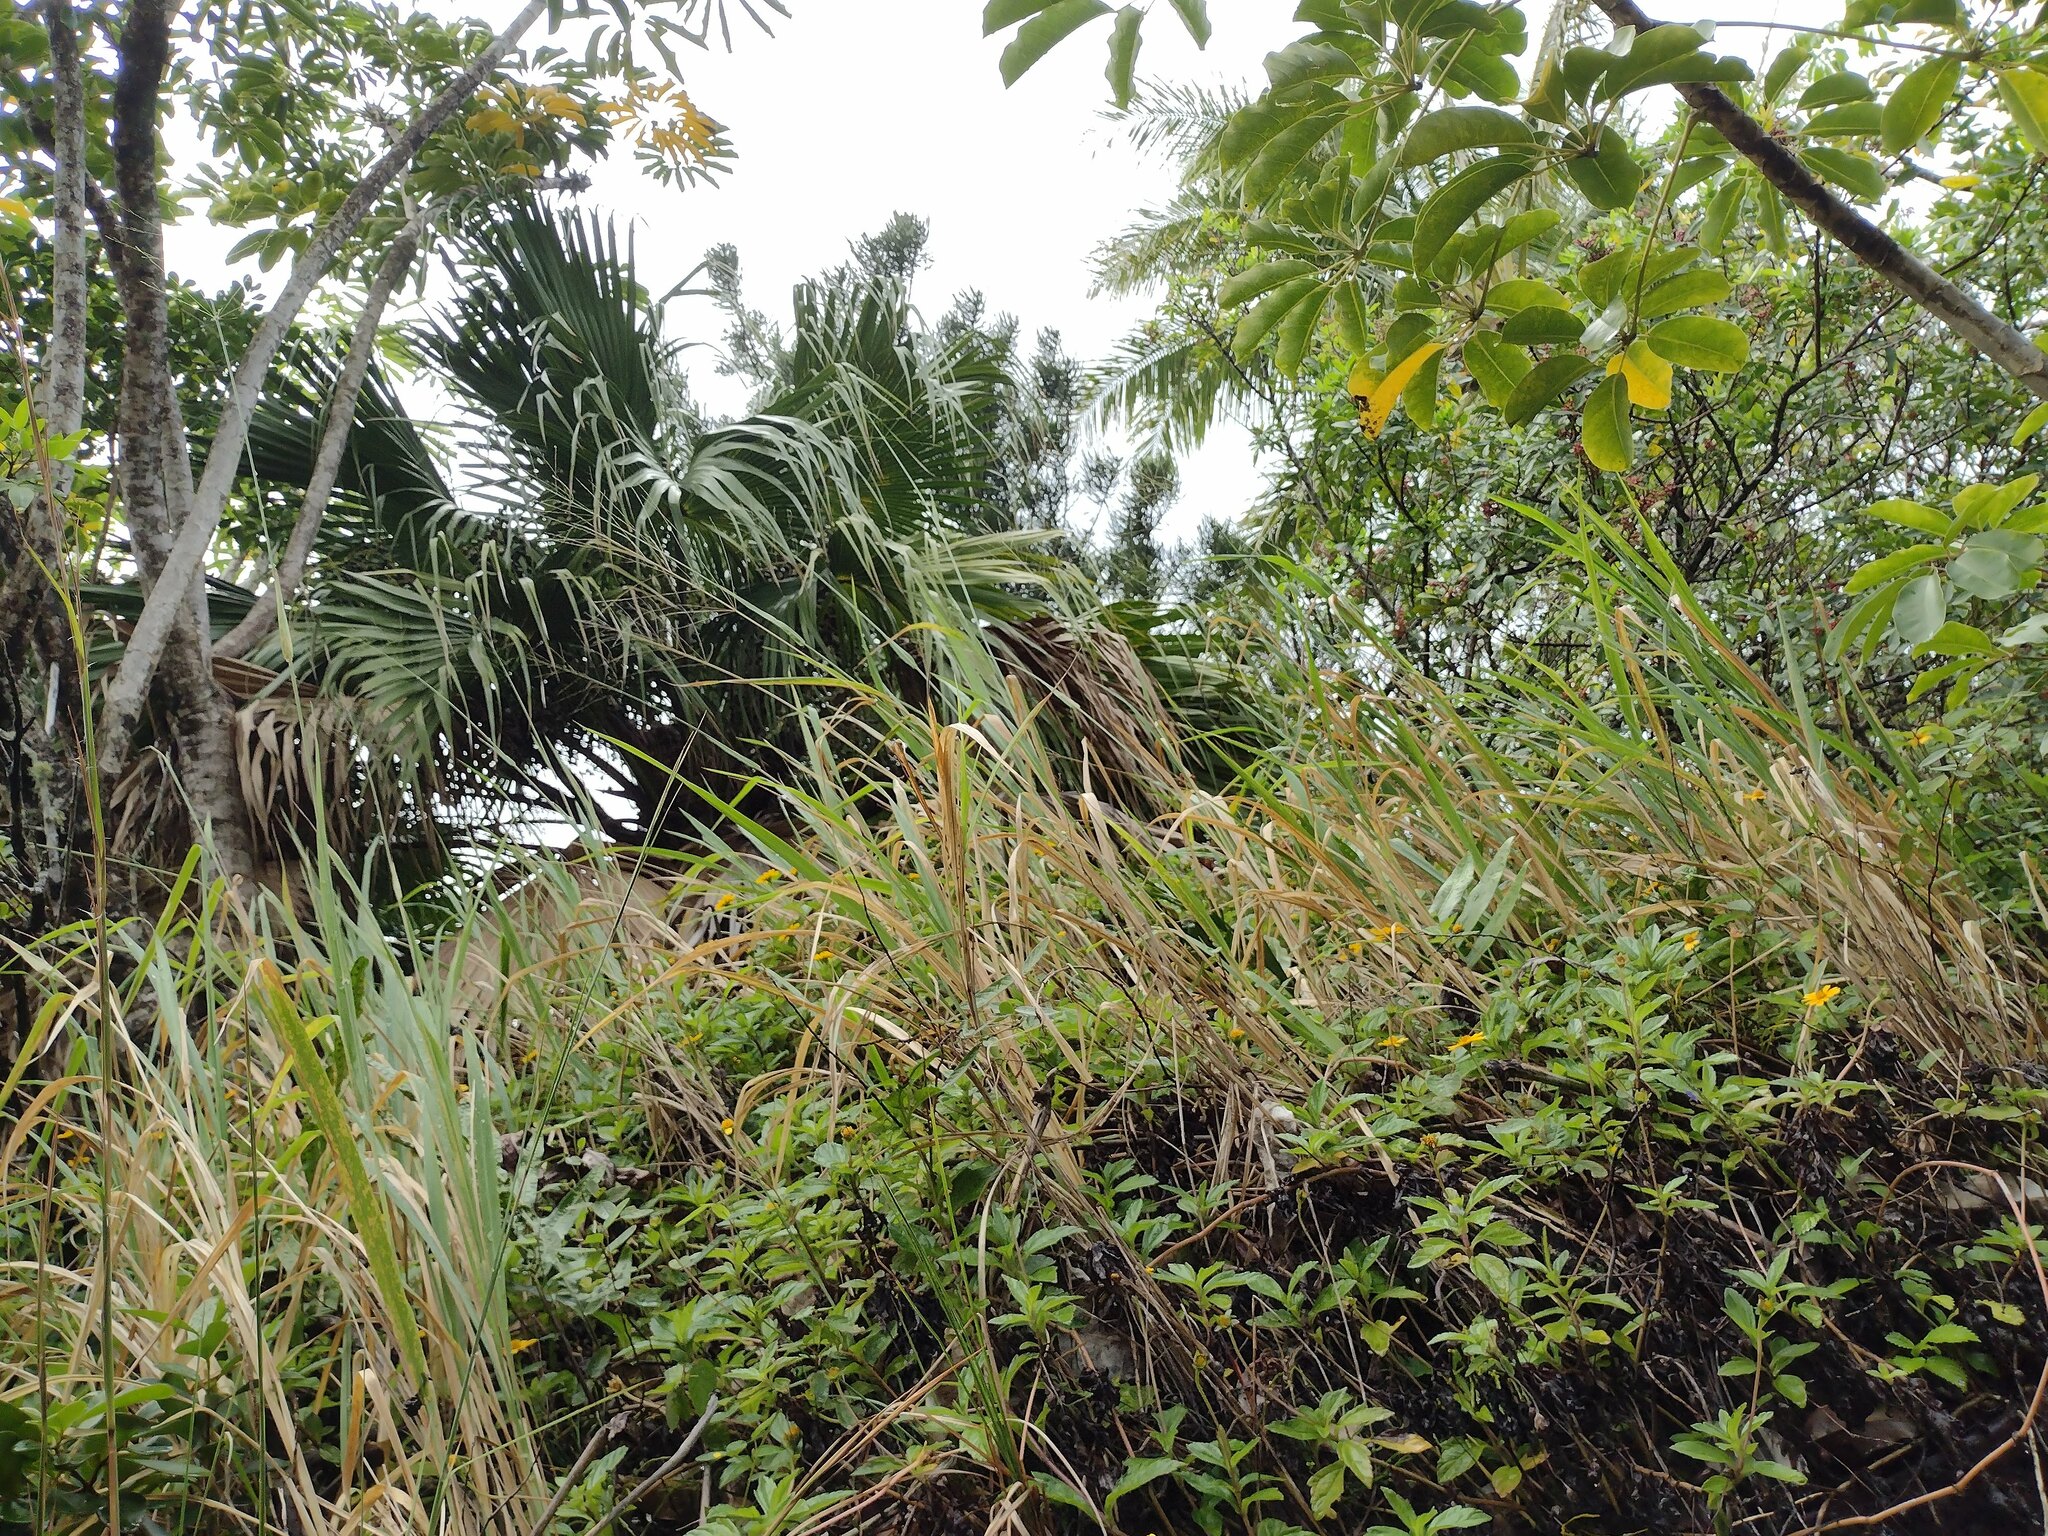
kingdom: Plantae
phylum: Tracheophyta
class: Liliopsida
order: Poales
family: Poaceae
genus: Megathyrsus
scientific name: Megathyrsus maximus
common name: Guineagrass
